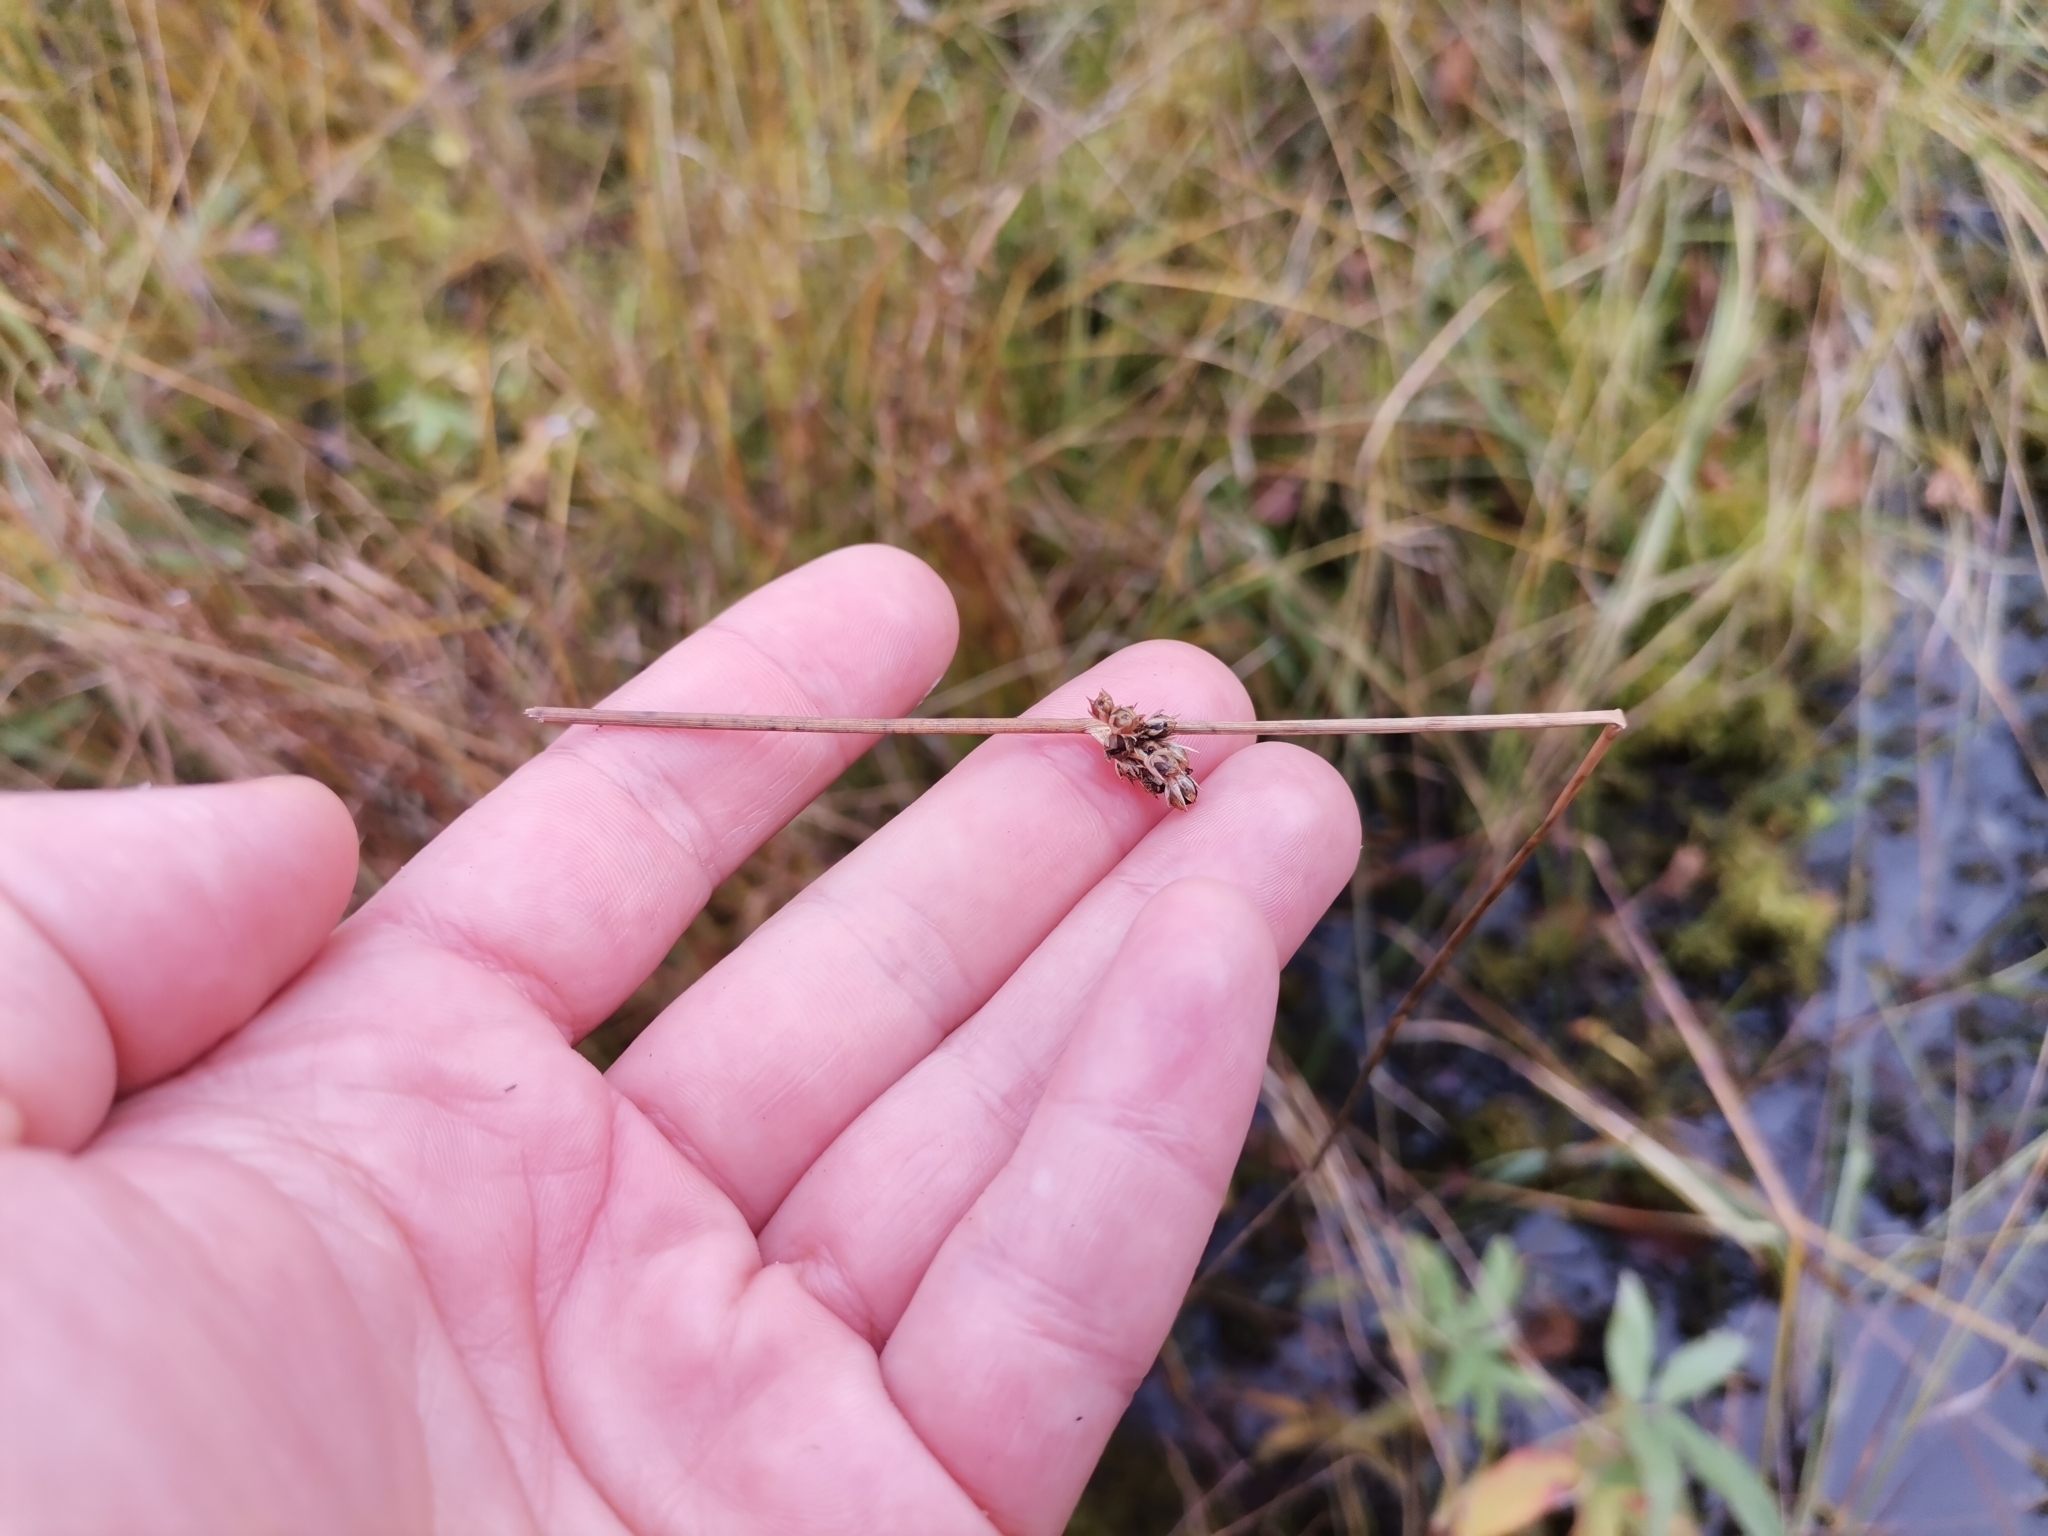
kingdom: Plantae
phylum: Tracheophyta
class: Liliopsida
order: Poales
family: Juncaceae
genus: Juncus
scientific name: Juncus filiformis
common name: Thread rush
